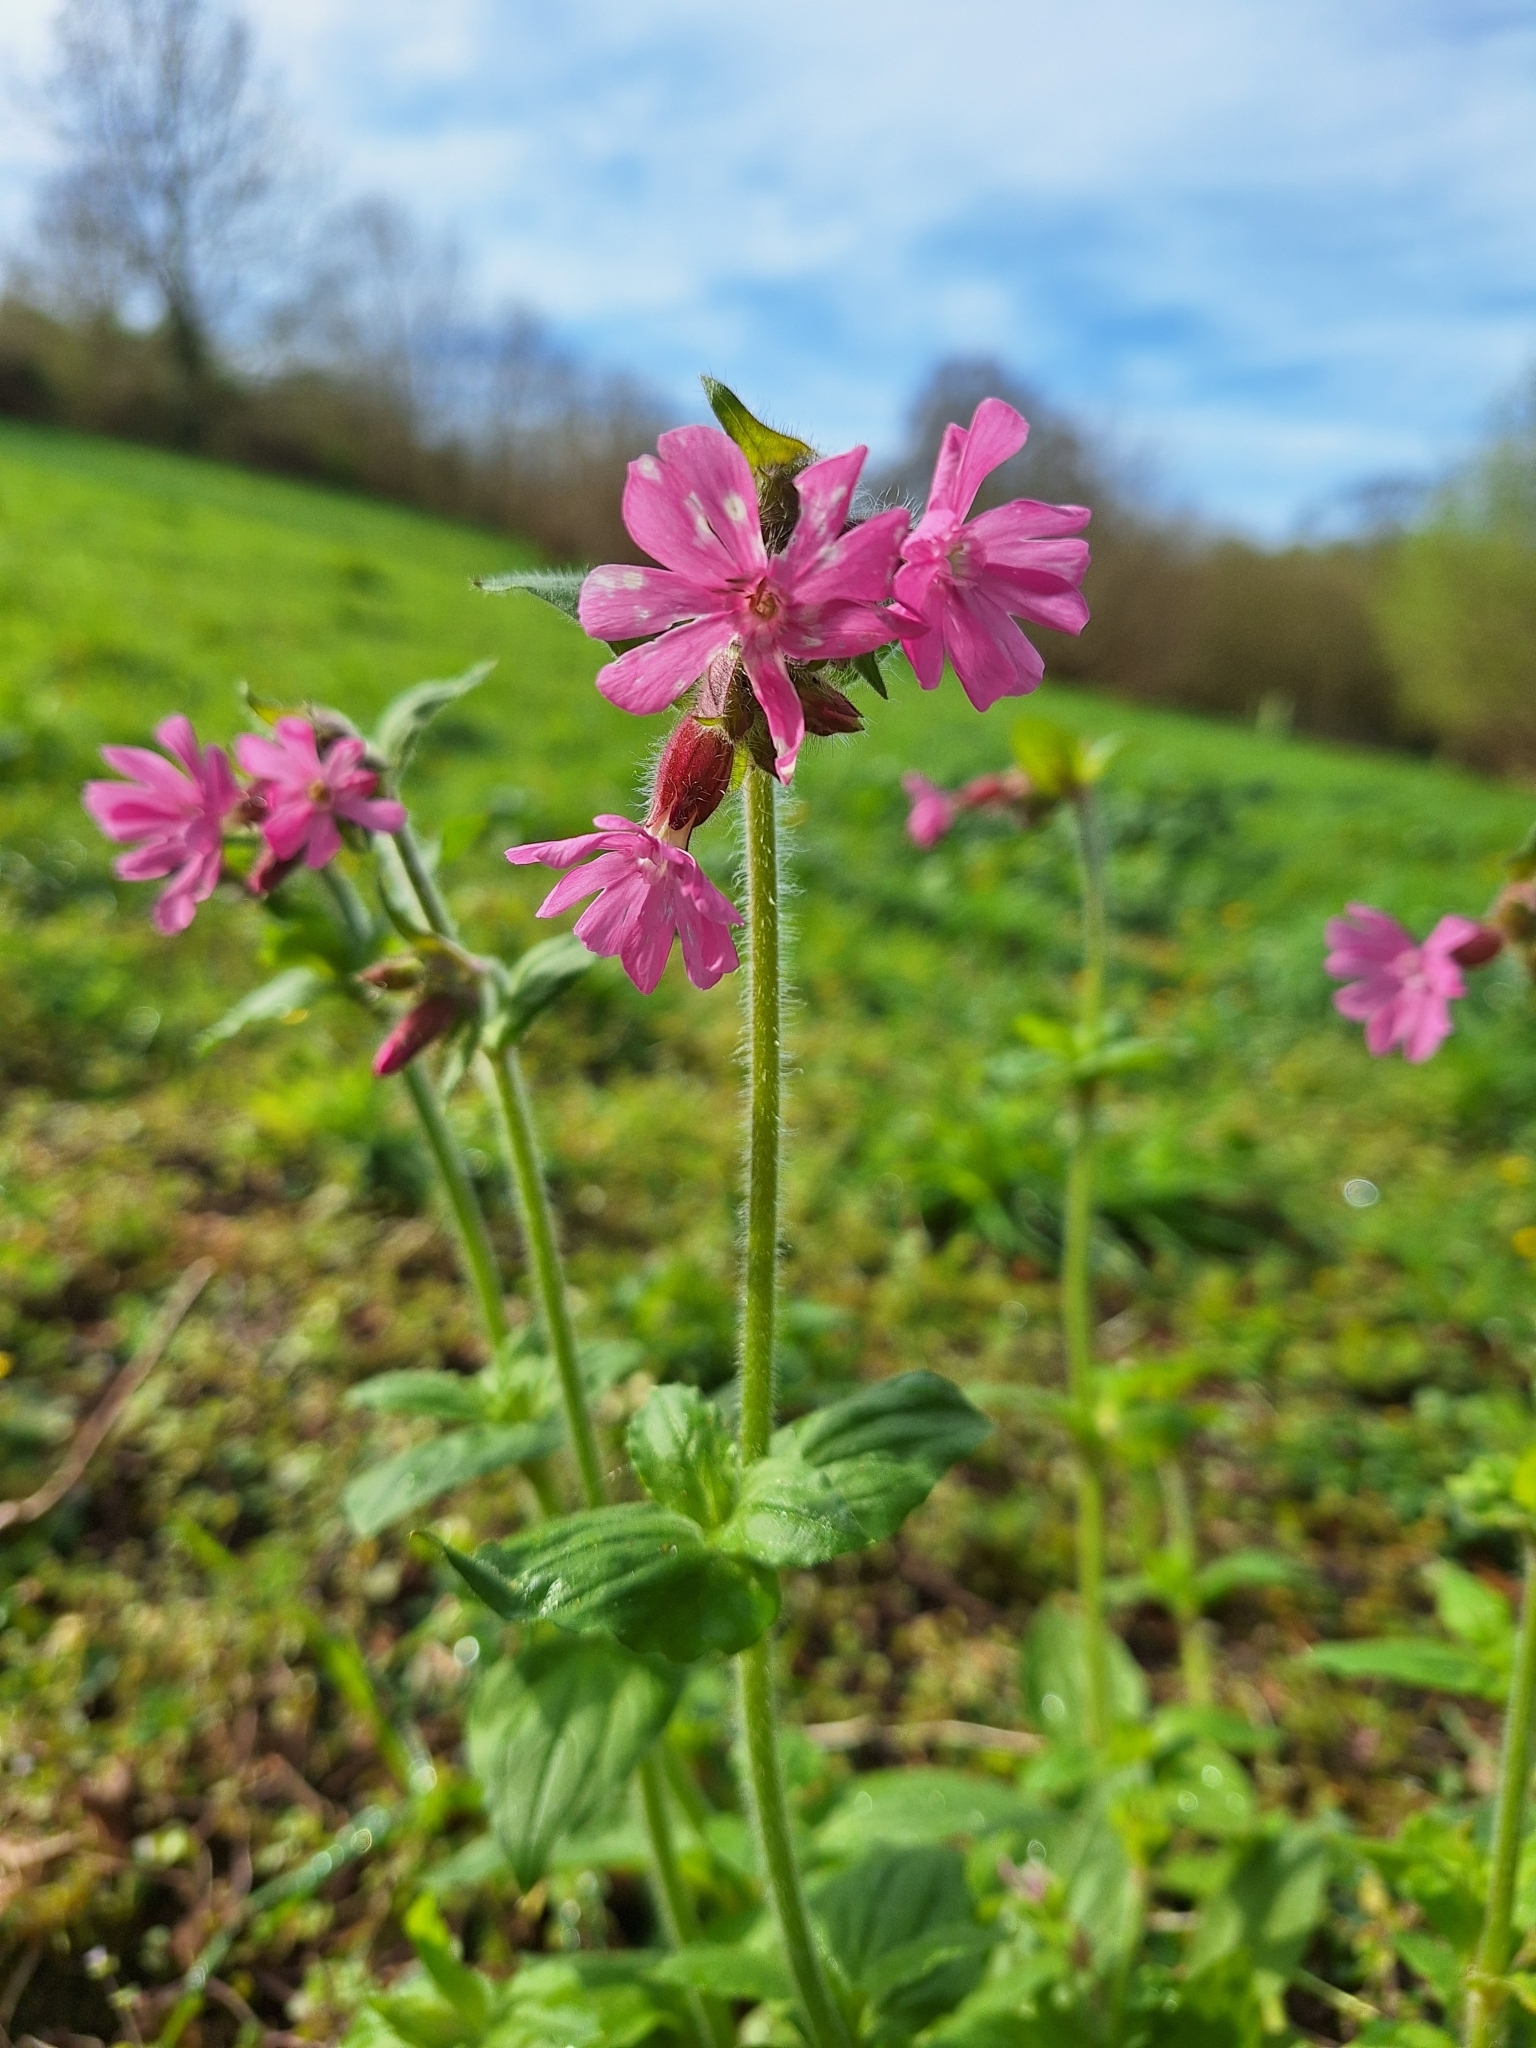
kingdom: Plantae
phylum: Tracheophyta
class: Magnoliopsida
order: Caryophyllales
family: Caryophyllaceae
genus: Silene
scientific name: Silene dioica
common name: Red campion
